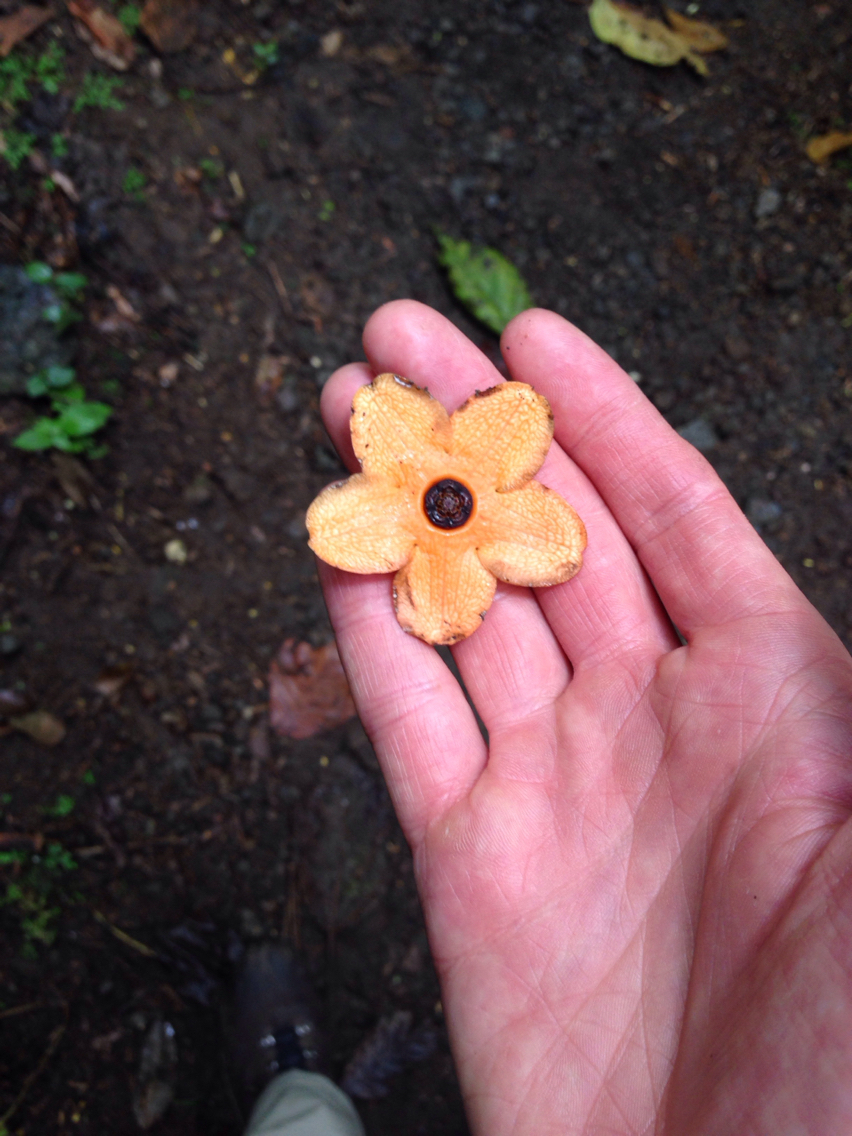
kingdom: Plantae
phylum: Tracheophyta
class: Magnoliopsida
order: Gentianales
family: Apocynaceae
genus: Bruceholstia
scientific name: Bruceholstia sidifolia
